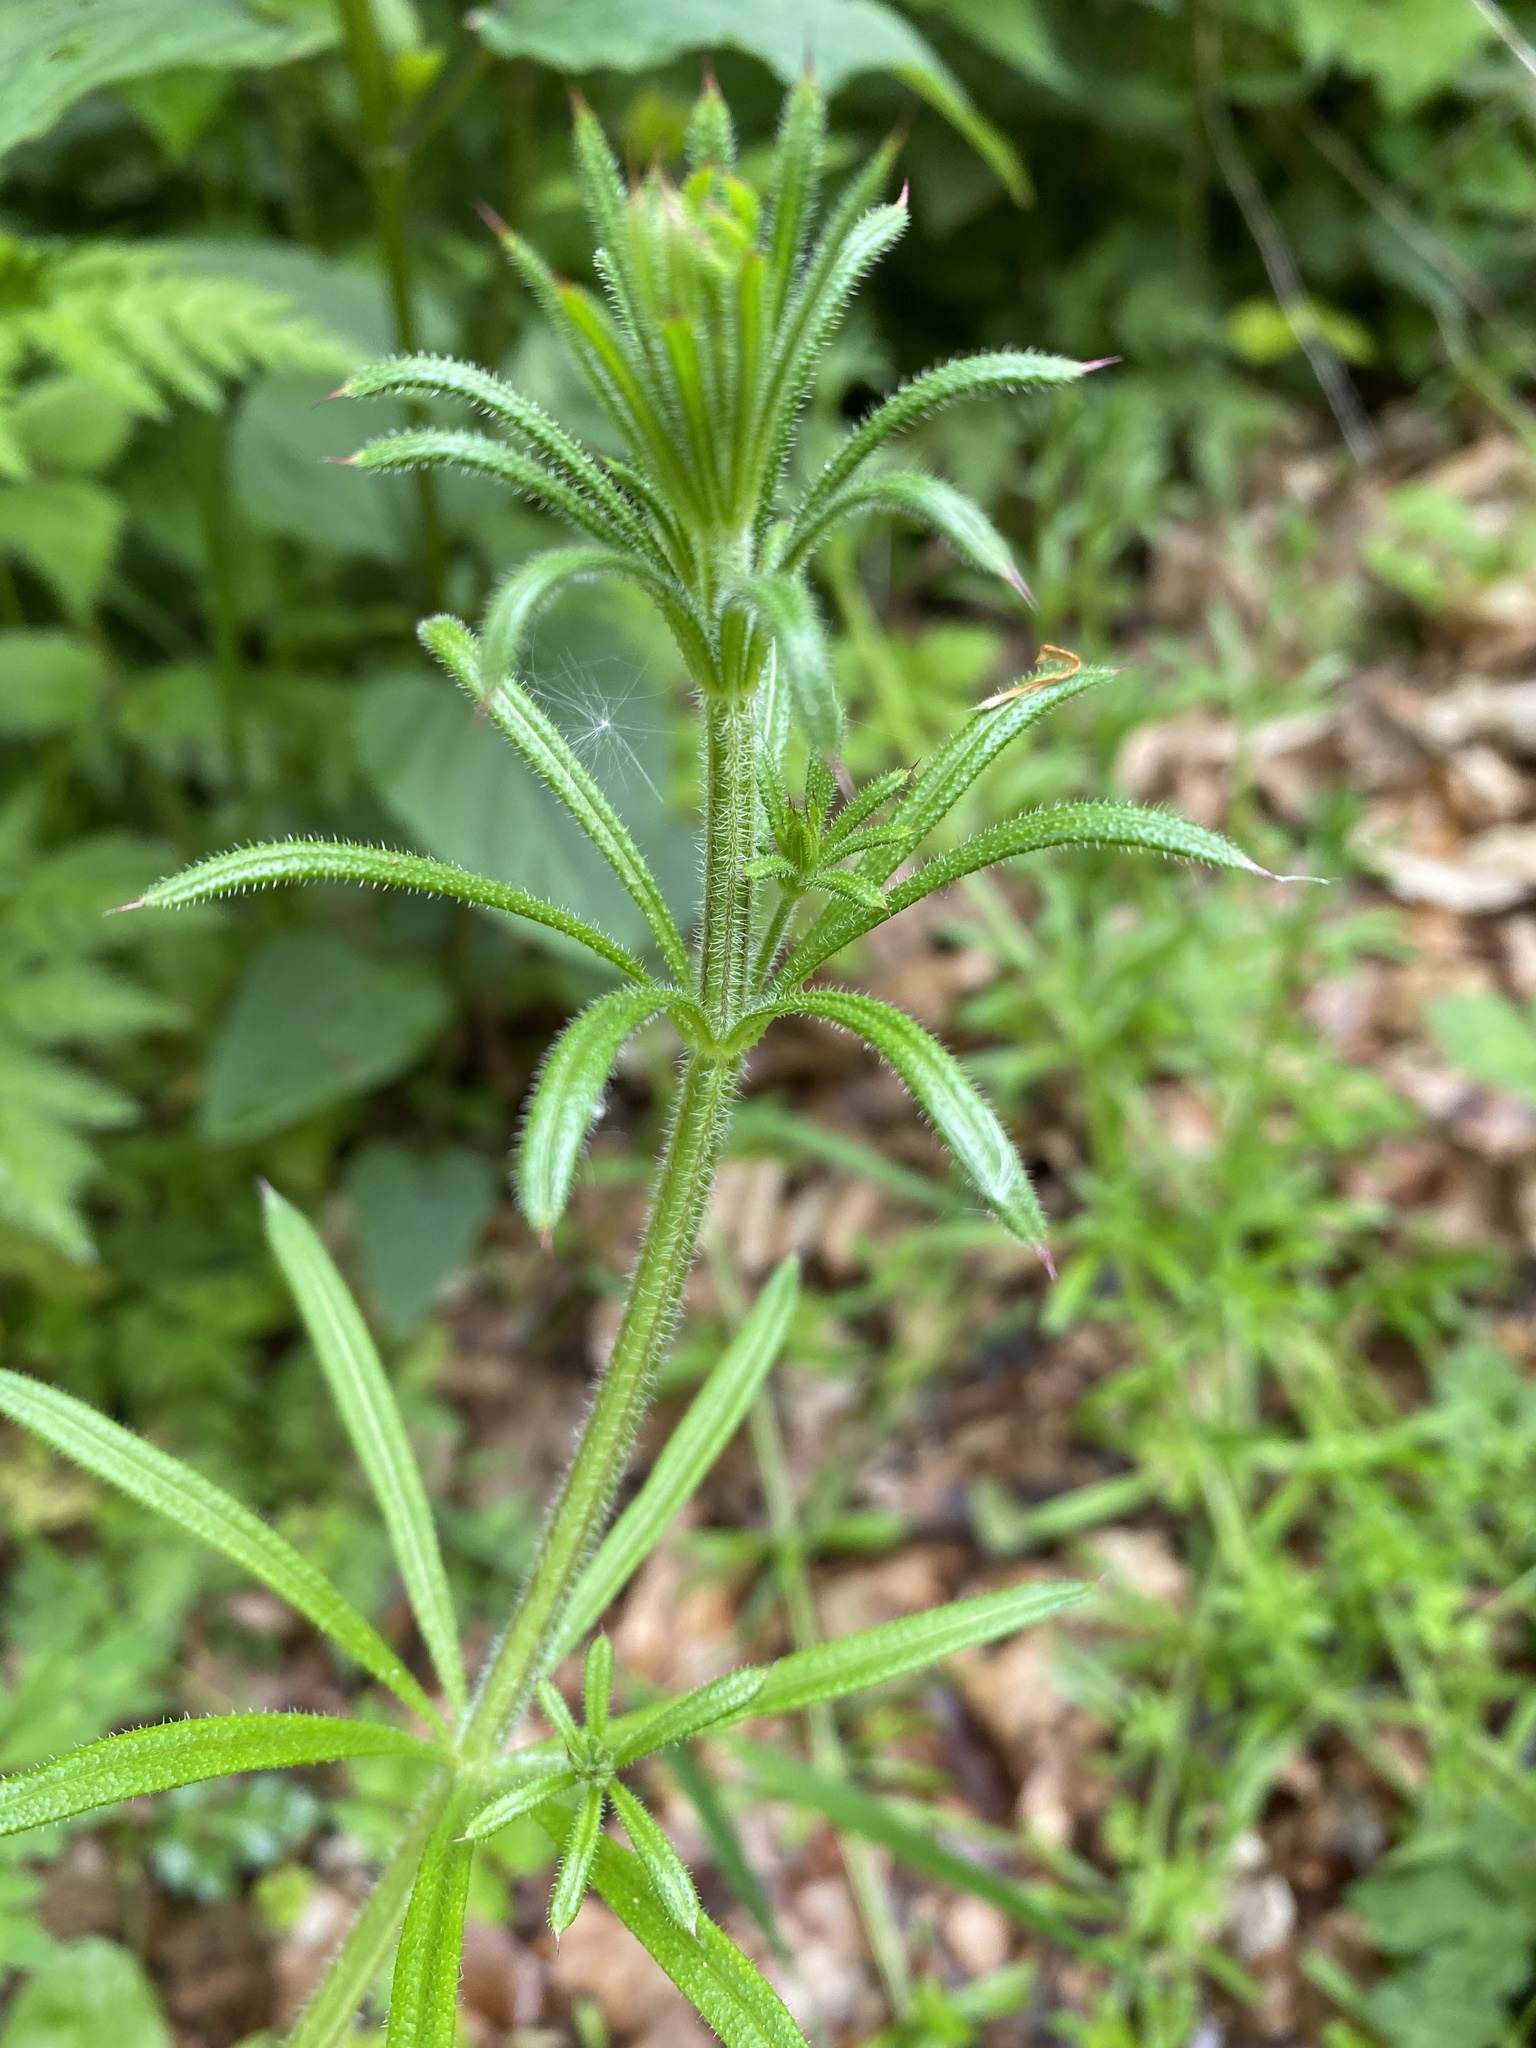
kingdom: Plantae
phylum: Tracheophyta
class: Magnoliopsida
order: Gentianales
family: Rubiaceae
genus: Galium
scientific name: Galium aparine
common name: Cleavers
